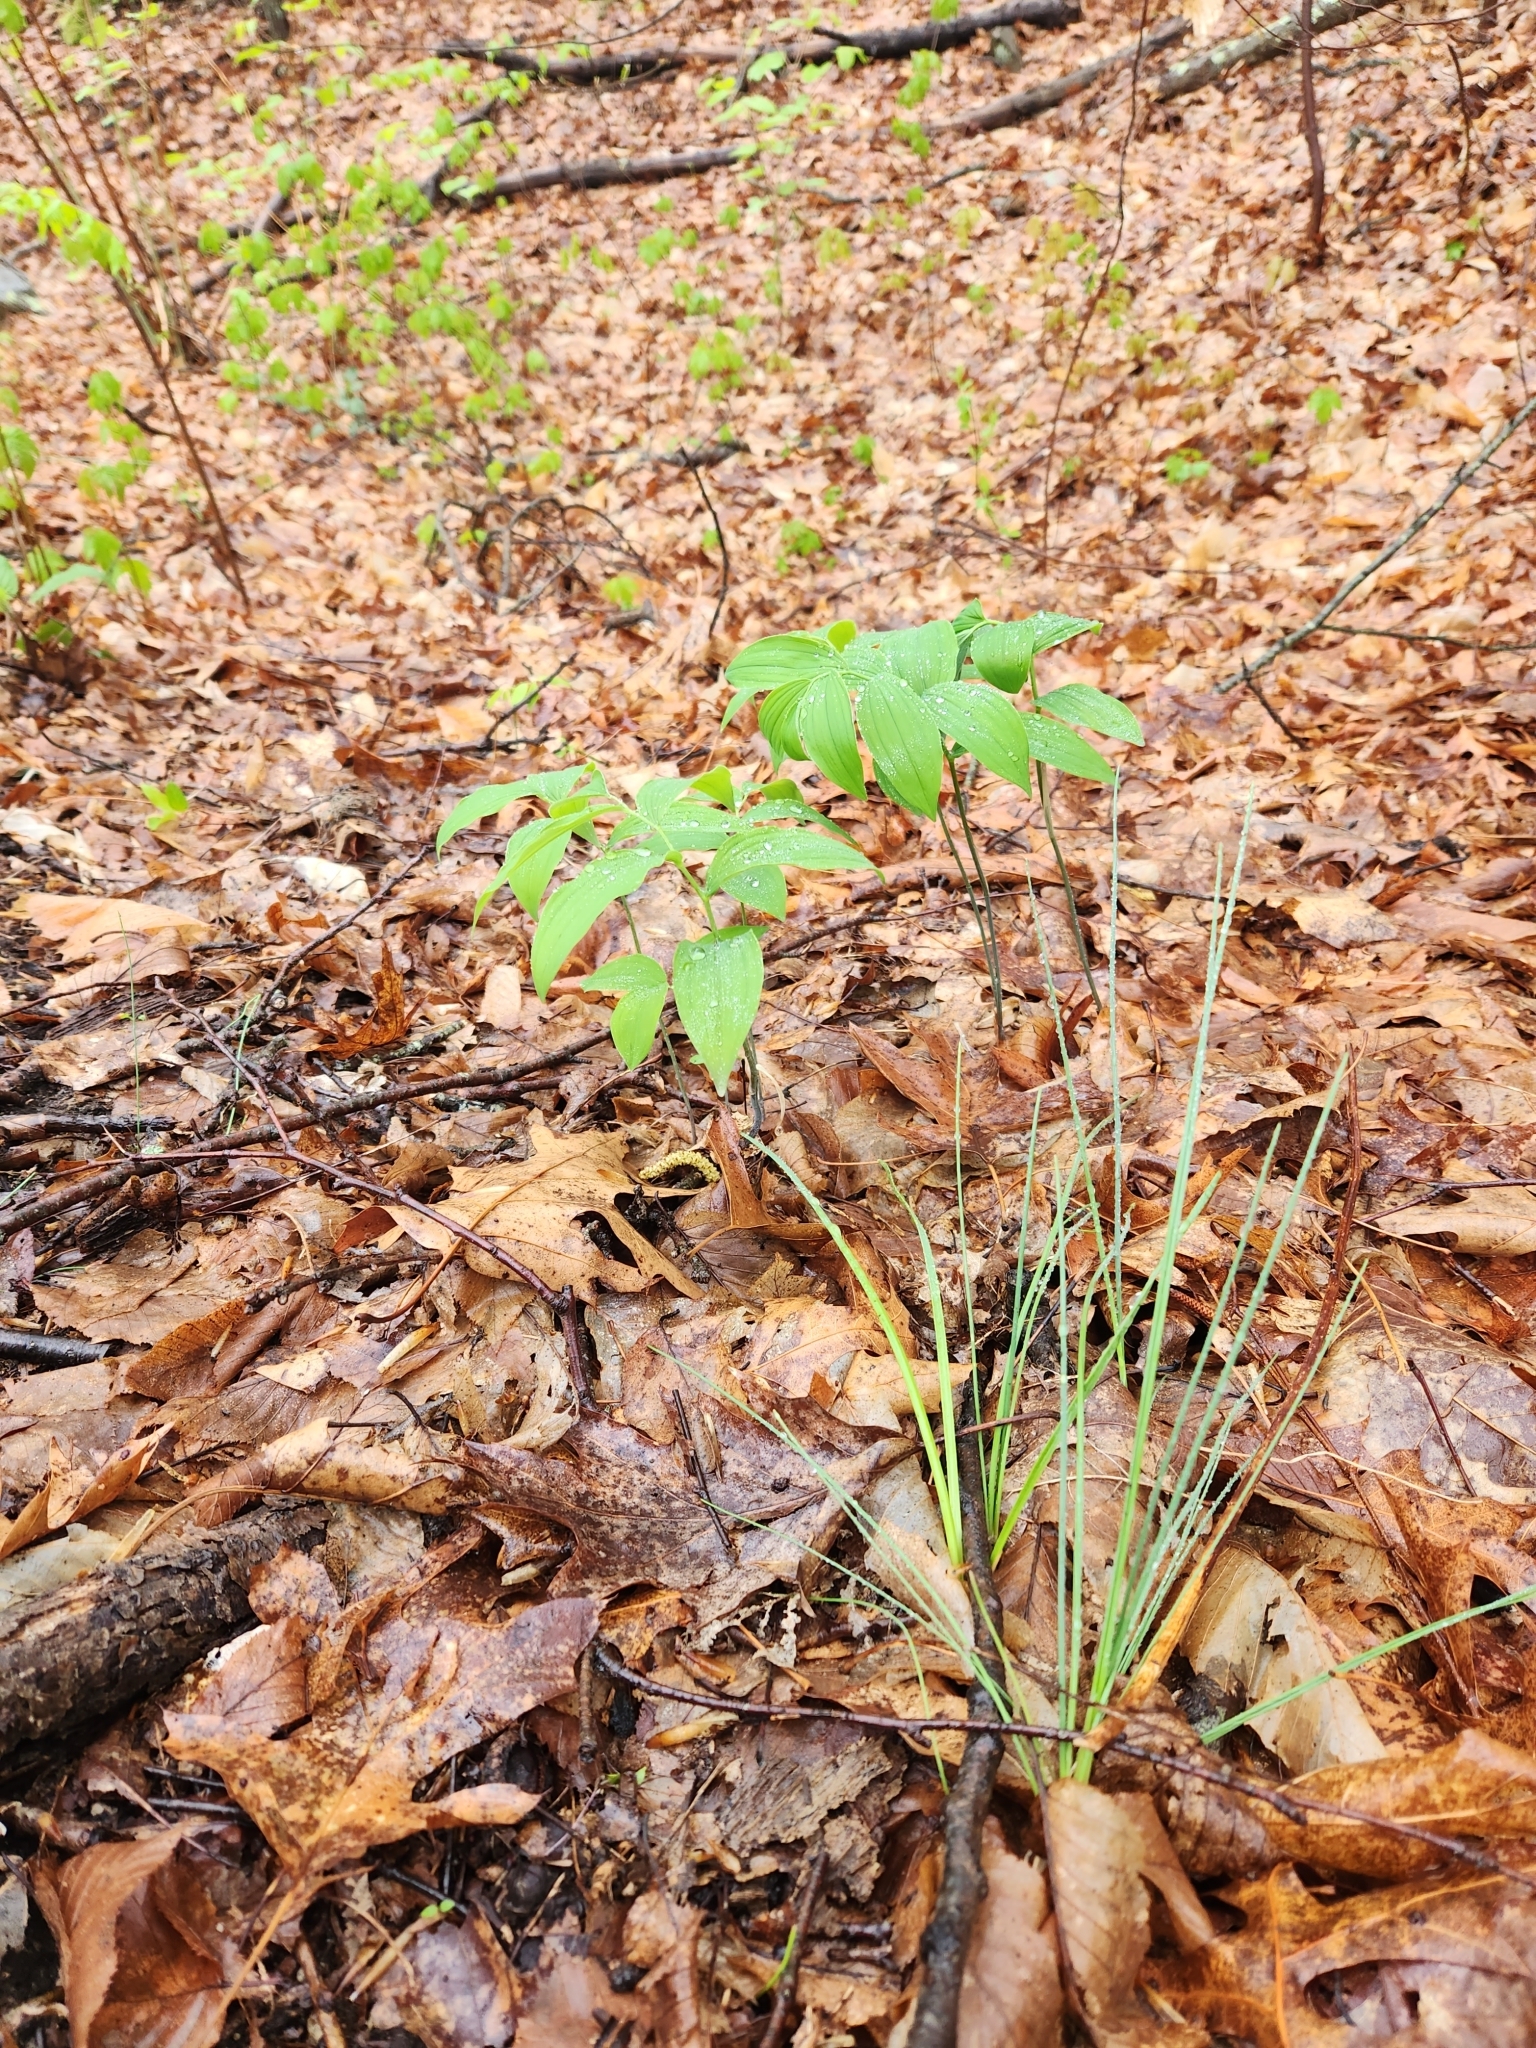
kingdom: Plantae
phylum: Tracheophyta
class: Liliopsida
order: Asparagales
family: Asparagaceae
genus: Polygonatum
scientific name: Polygonatum pubescens
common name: Downy solomon's seal
